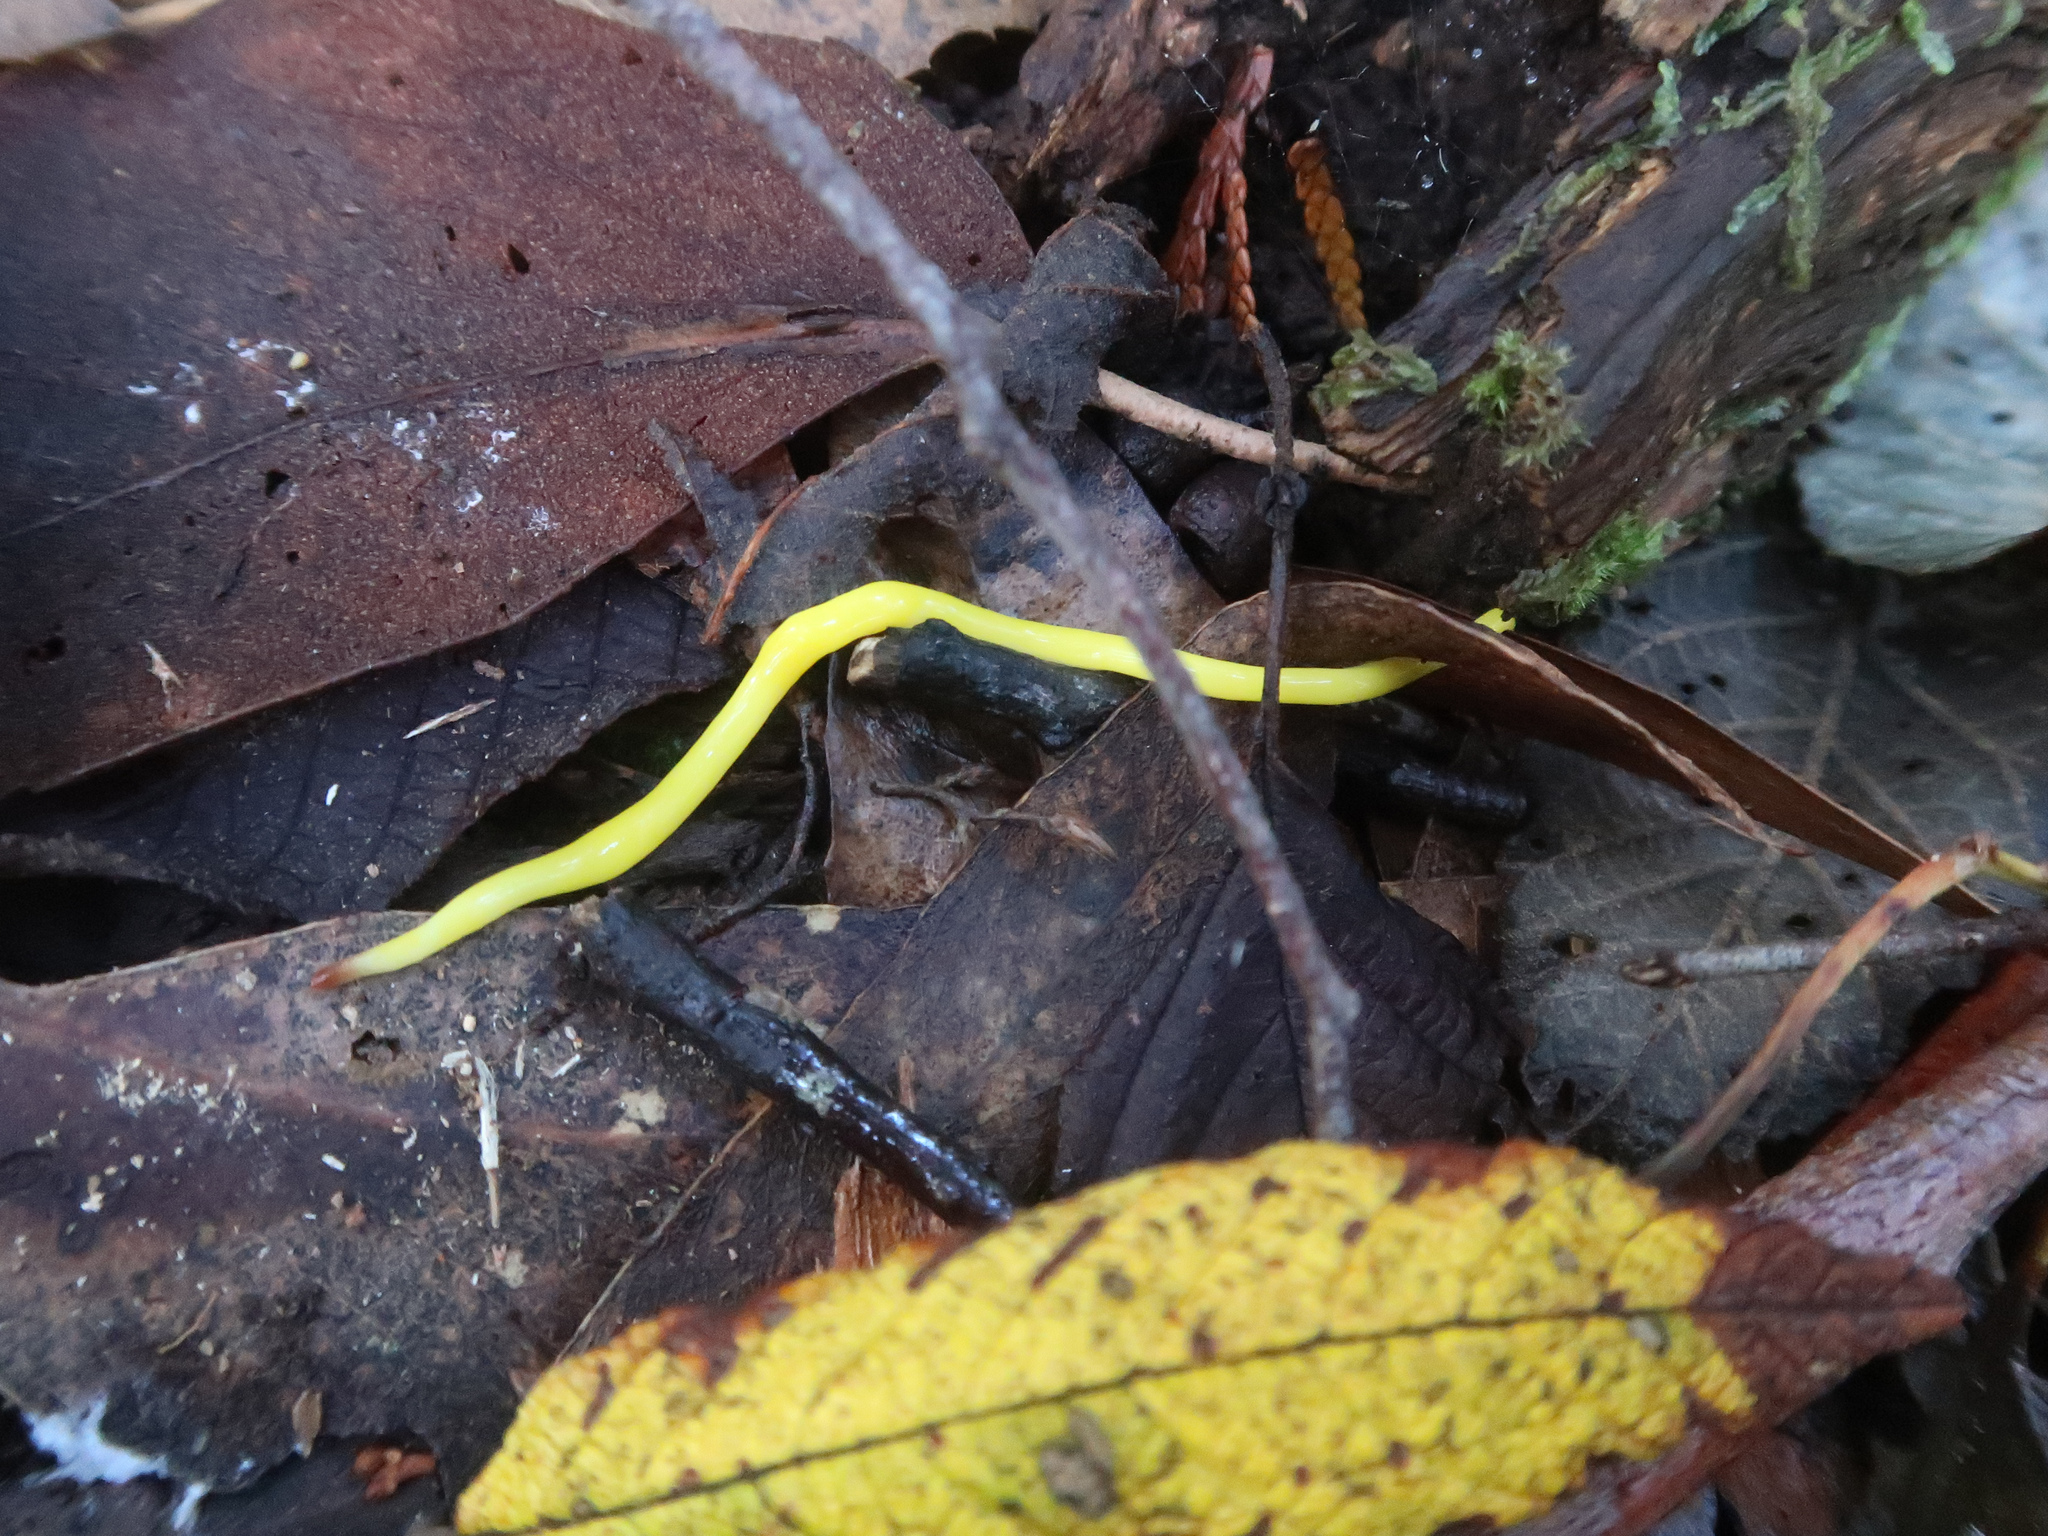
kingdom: Animalia
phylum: Platyhelminthes
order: Tricladida
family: Geoplanidae
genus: Fletchamia
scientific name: Fletchamia sugdeni
